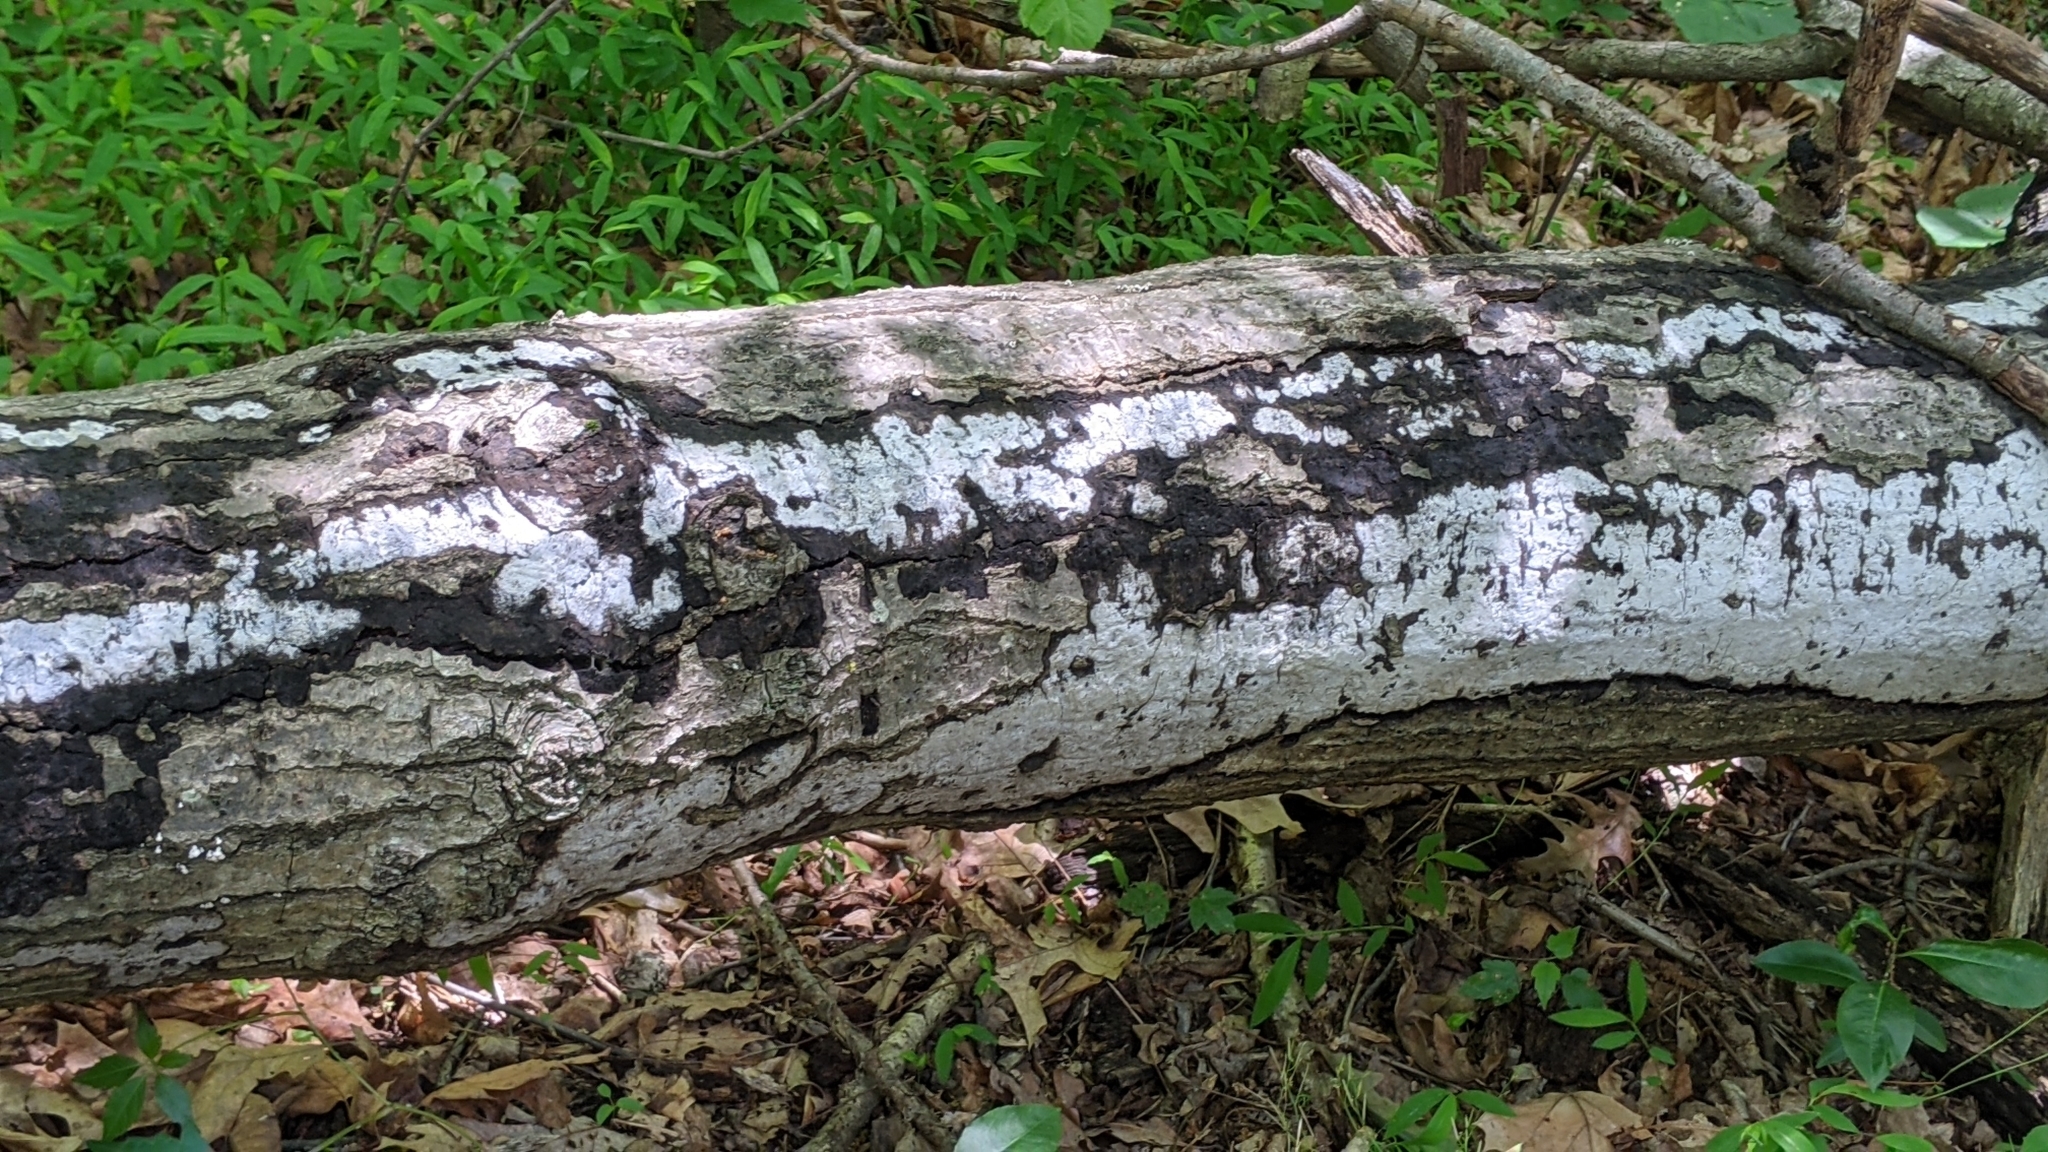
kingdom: Fungi
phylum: Ascomycota
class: Sordariomycetes
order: Xylariales
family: Graphostromataceae
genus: Biscogniauxia
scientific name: Biscogniauxia atropunctata
